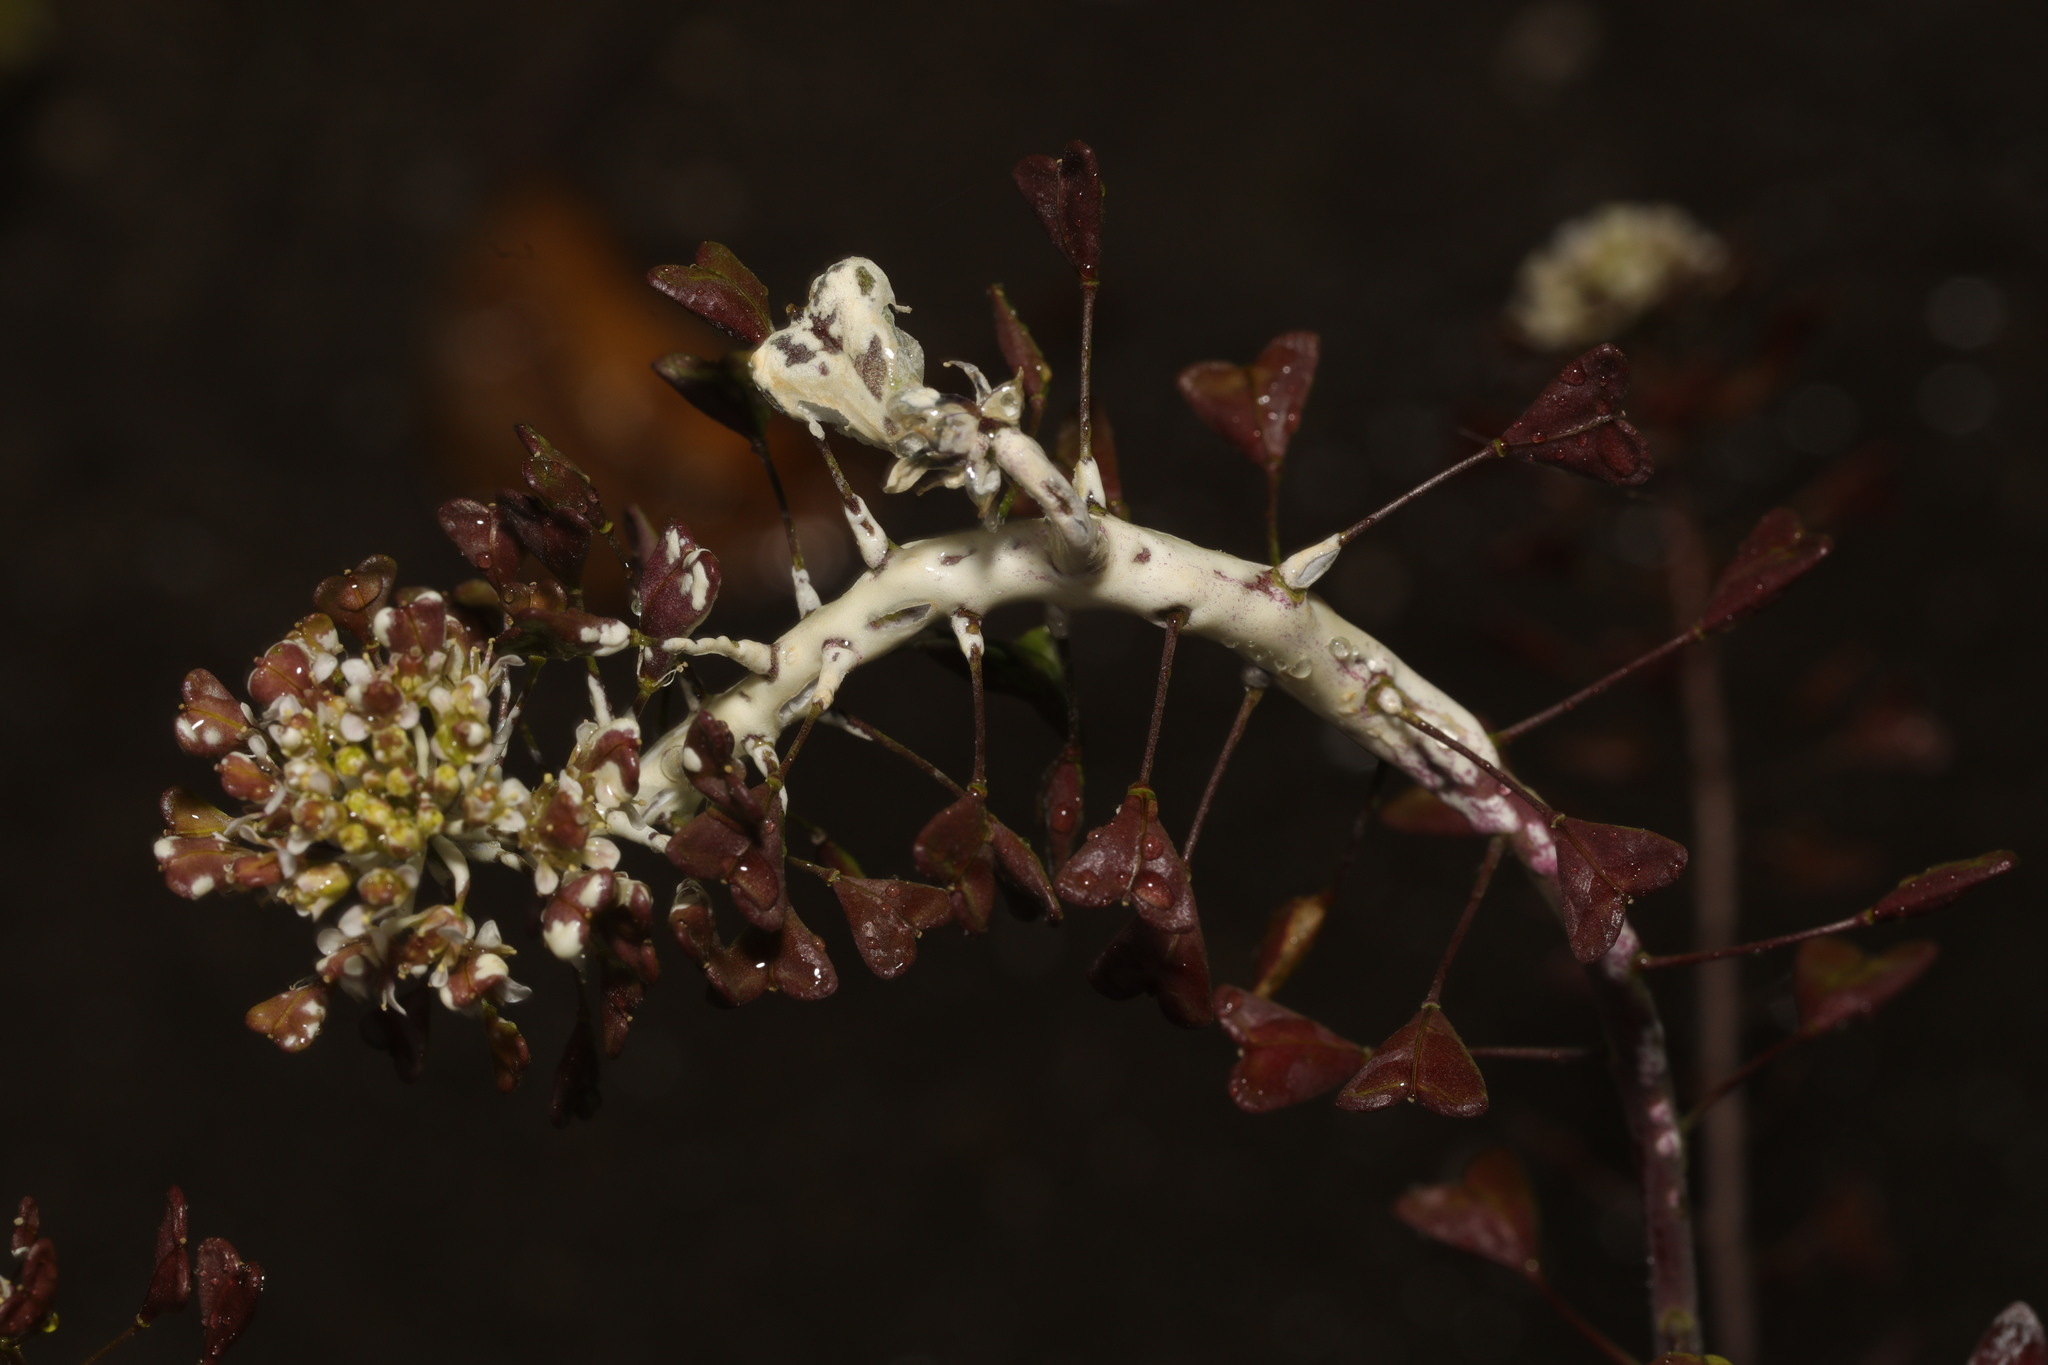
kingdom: Chromista
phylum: Oomycota
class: Peronosporea
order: Albuginales
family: Albuginaceae
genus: Albugo
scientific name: Albugo candida
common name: Crucifer white blister
